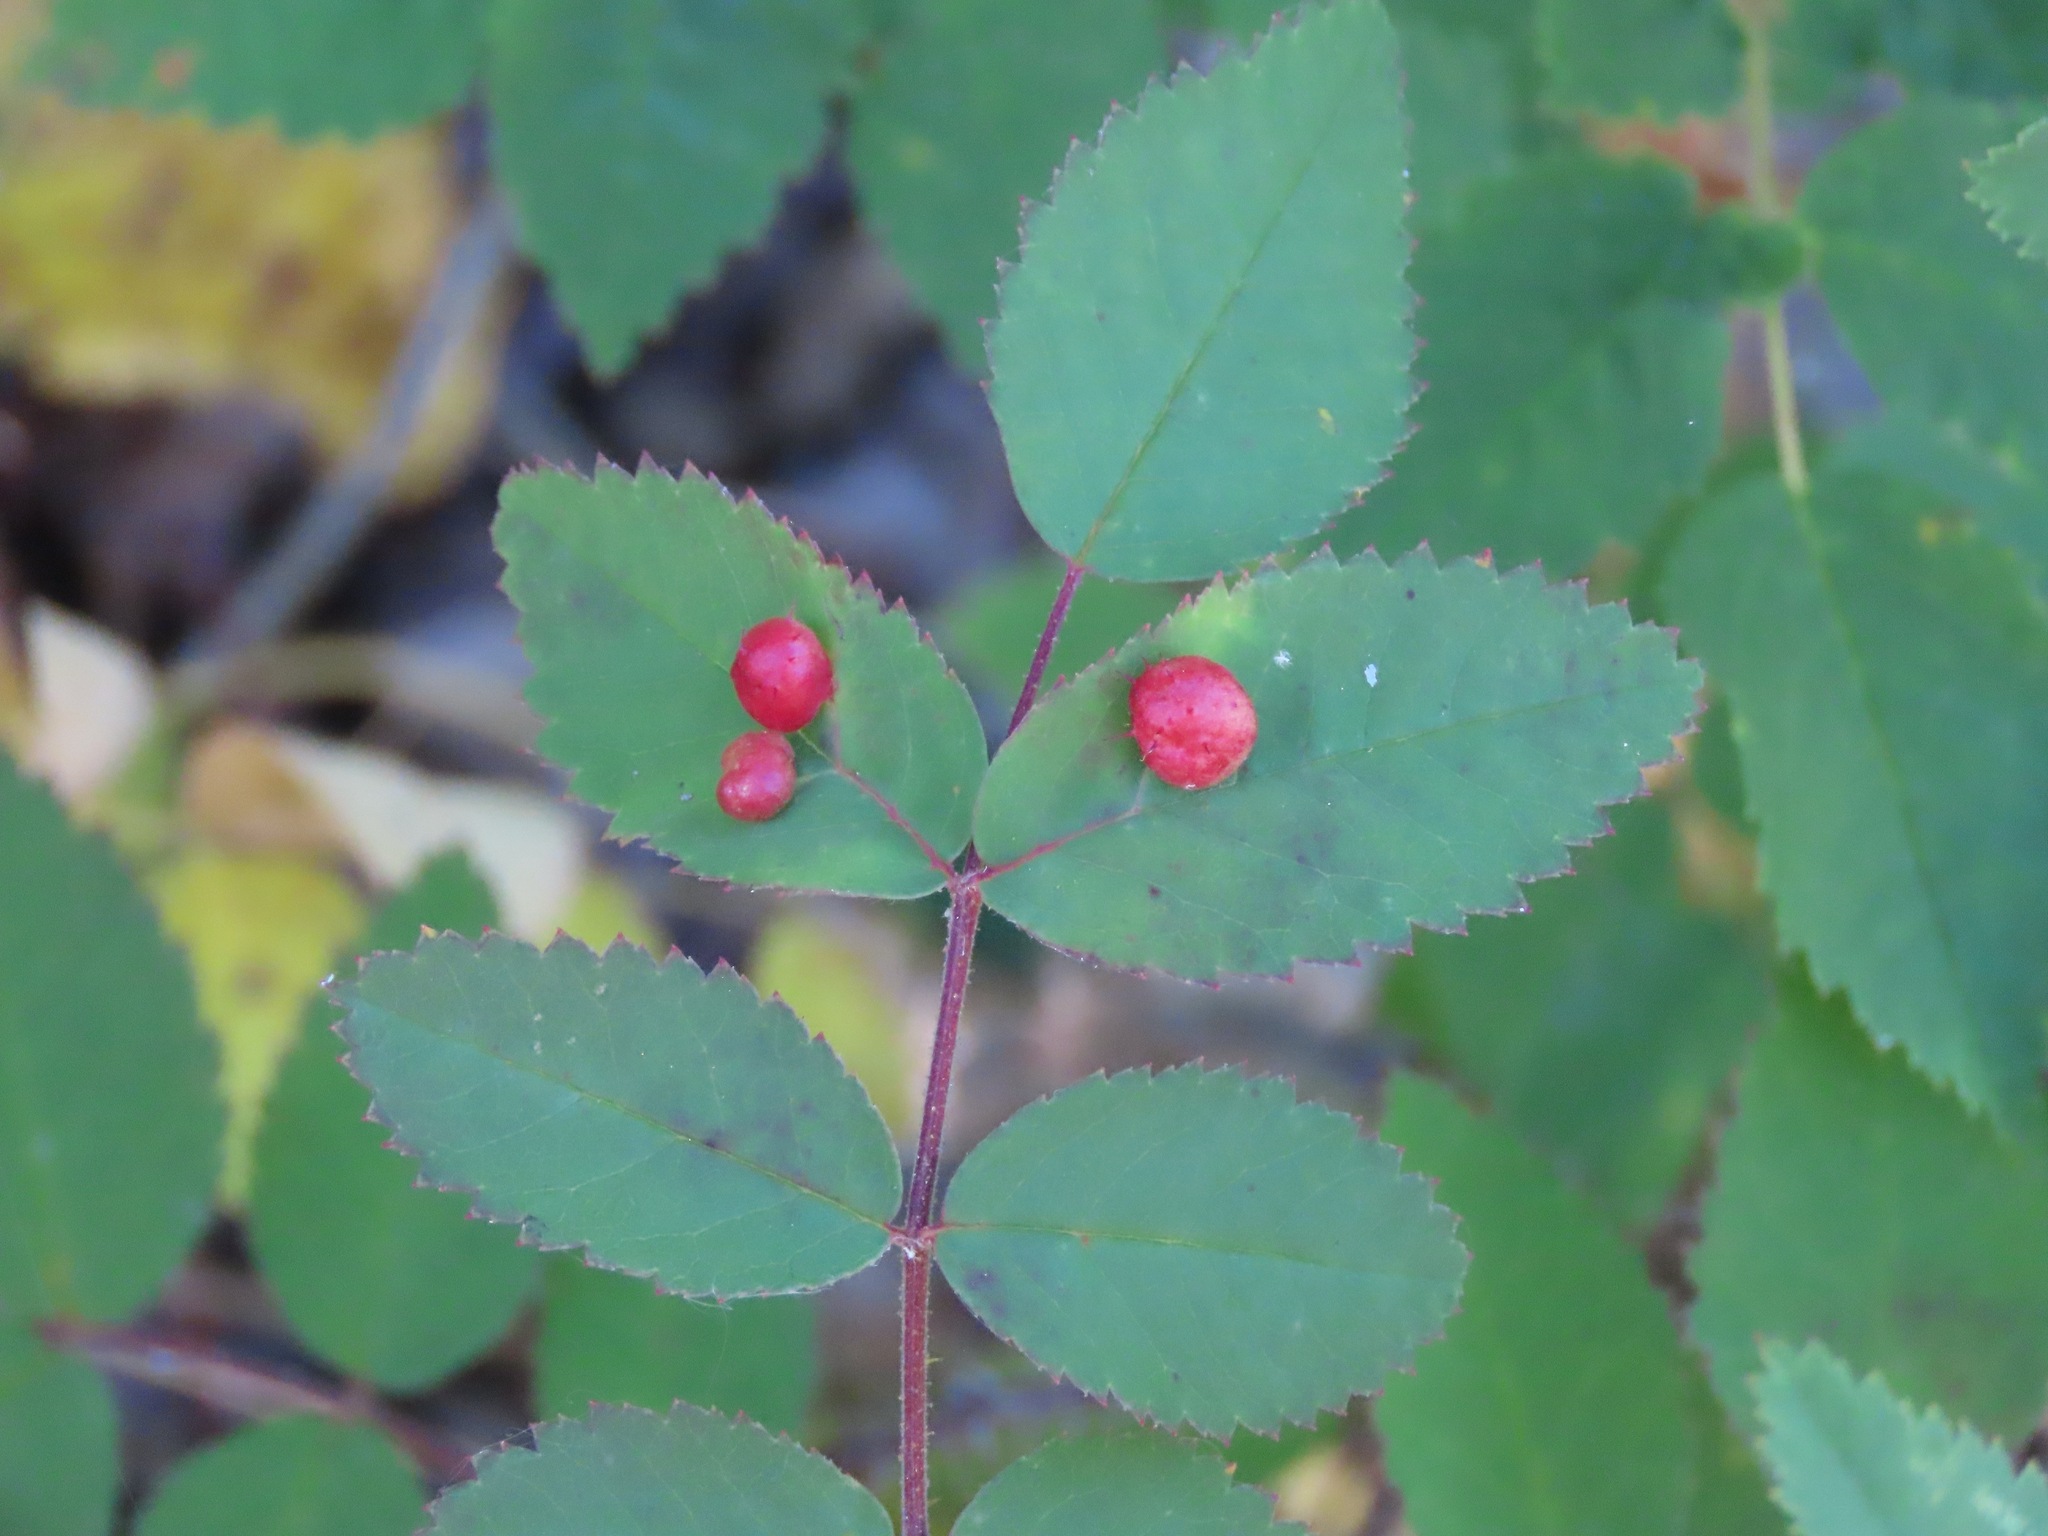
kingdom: Animalia
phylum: Arthropoda
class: Insecta
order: Hymenoptera
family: Cynipidae
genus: Diplolepis
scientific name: Diplolepis polita
